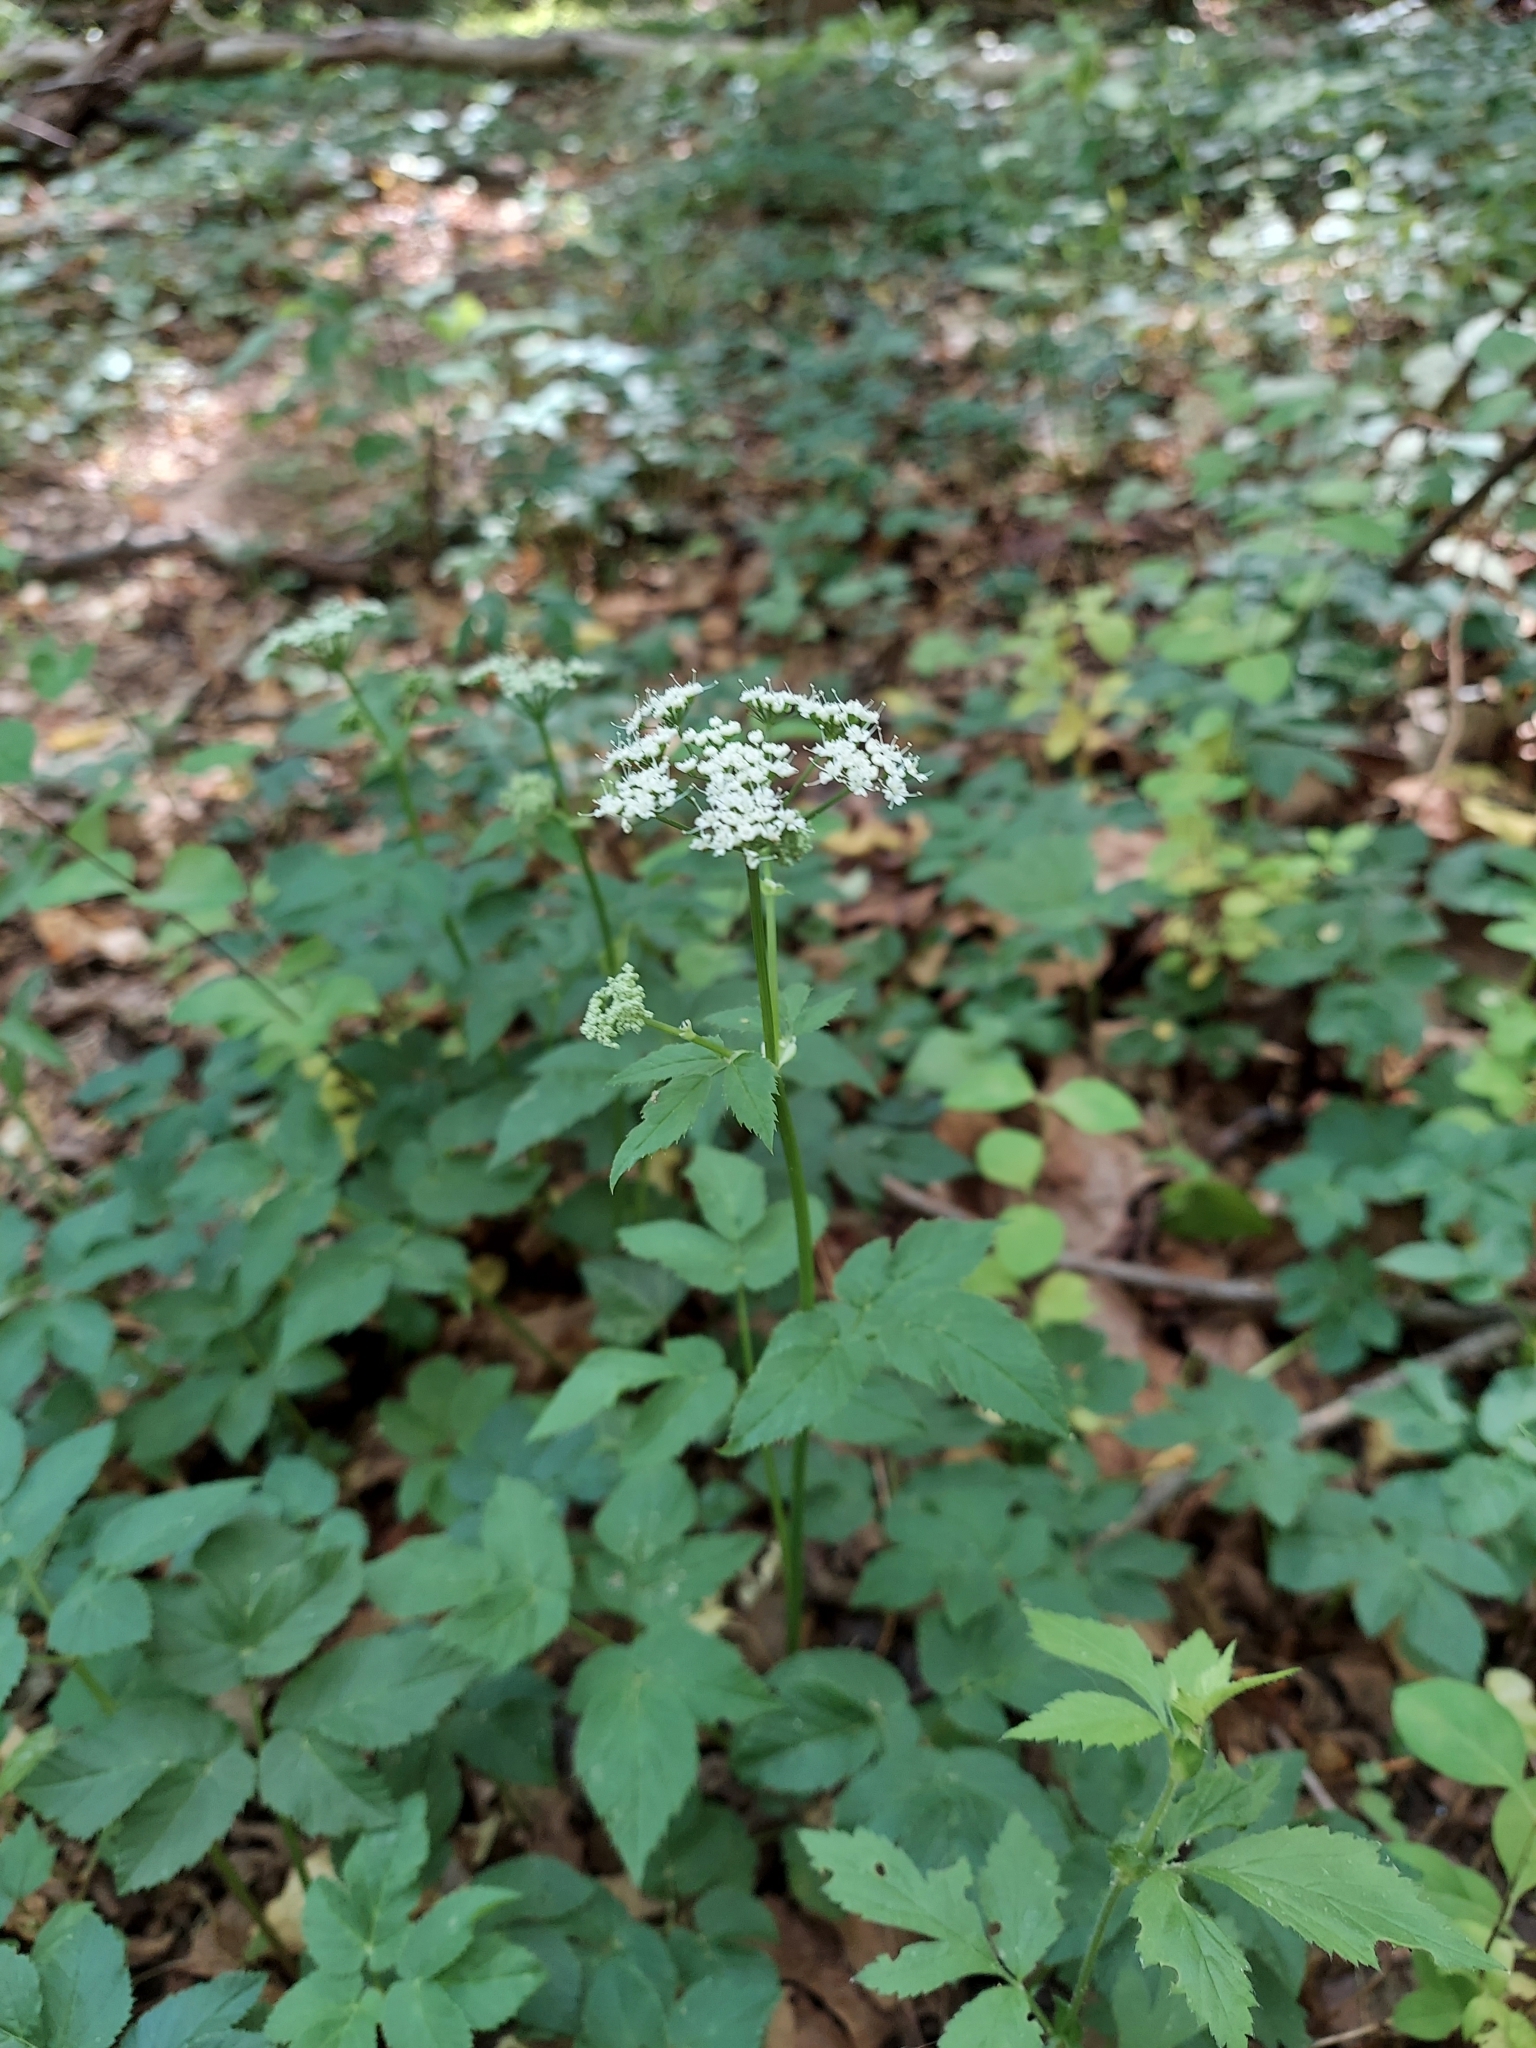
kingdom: Plantae
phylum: Tracheophyta
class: Magnoliopsida
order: Apiales
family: Apiaceae
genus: Aegopodium
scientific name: Aegopodium podagraria
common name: Ground-elder
